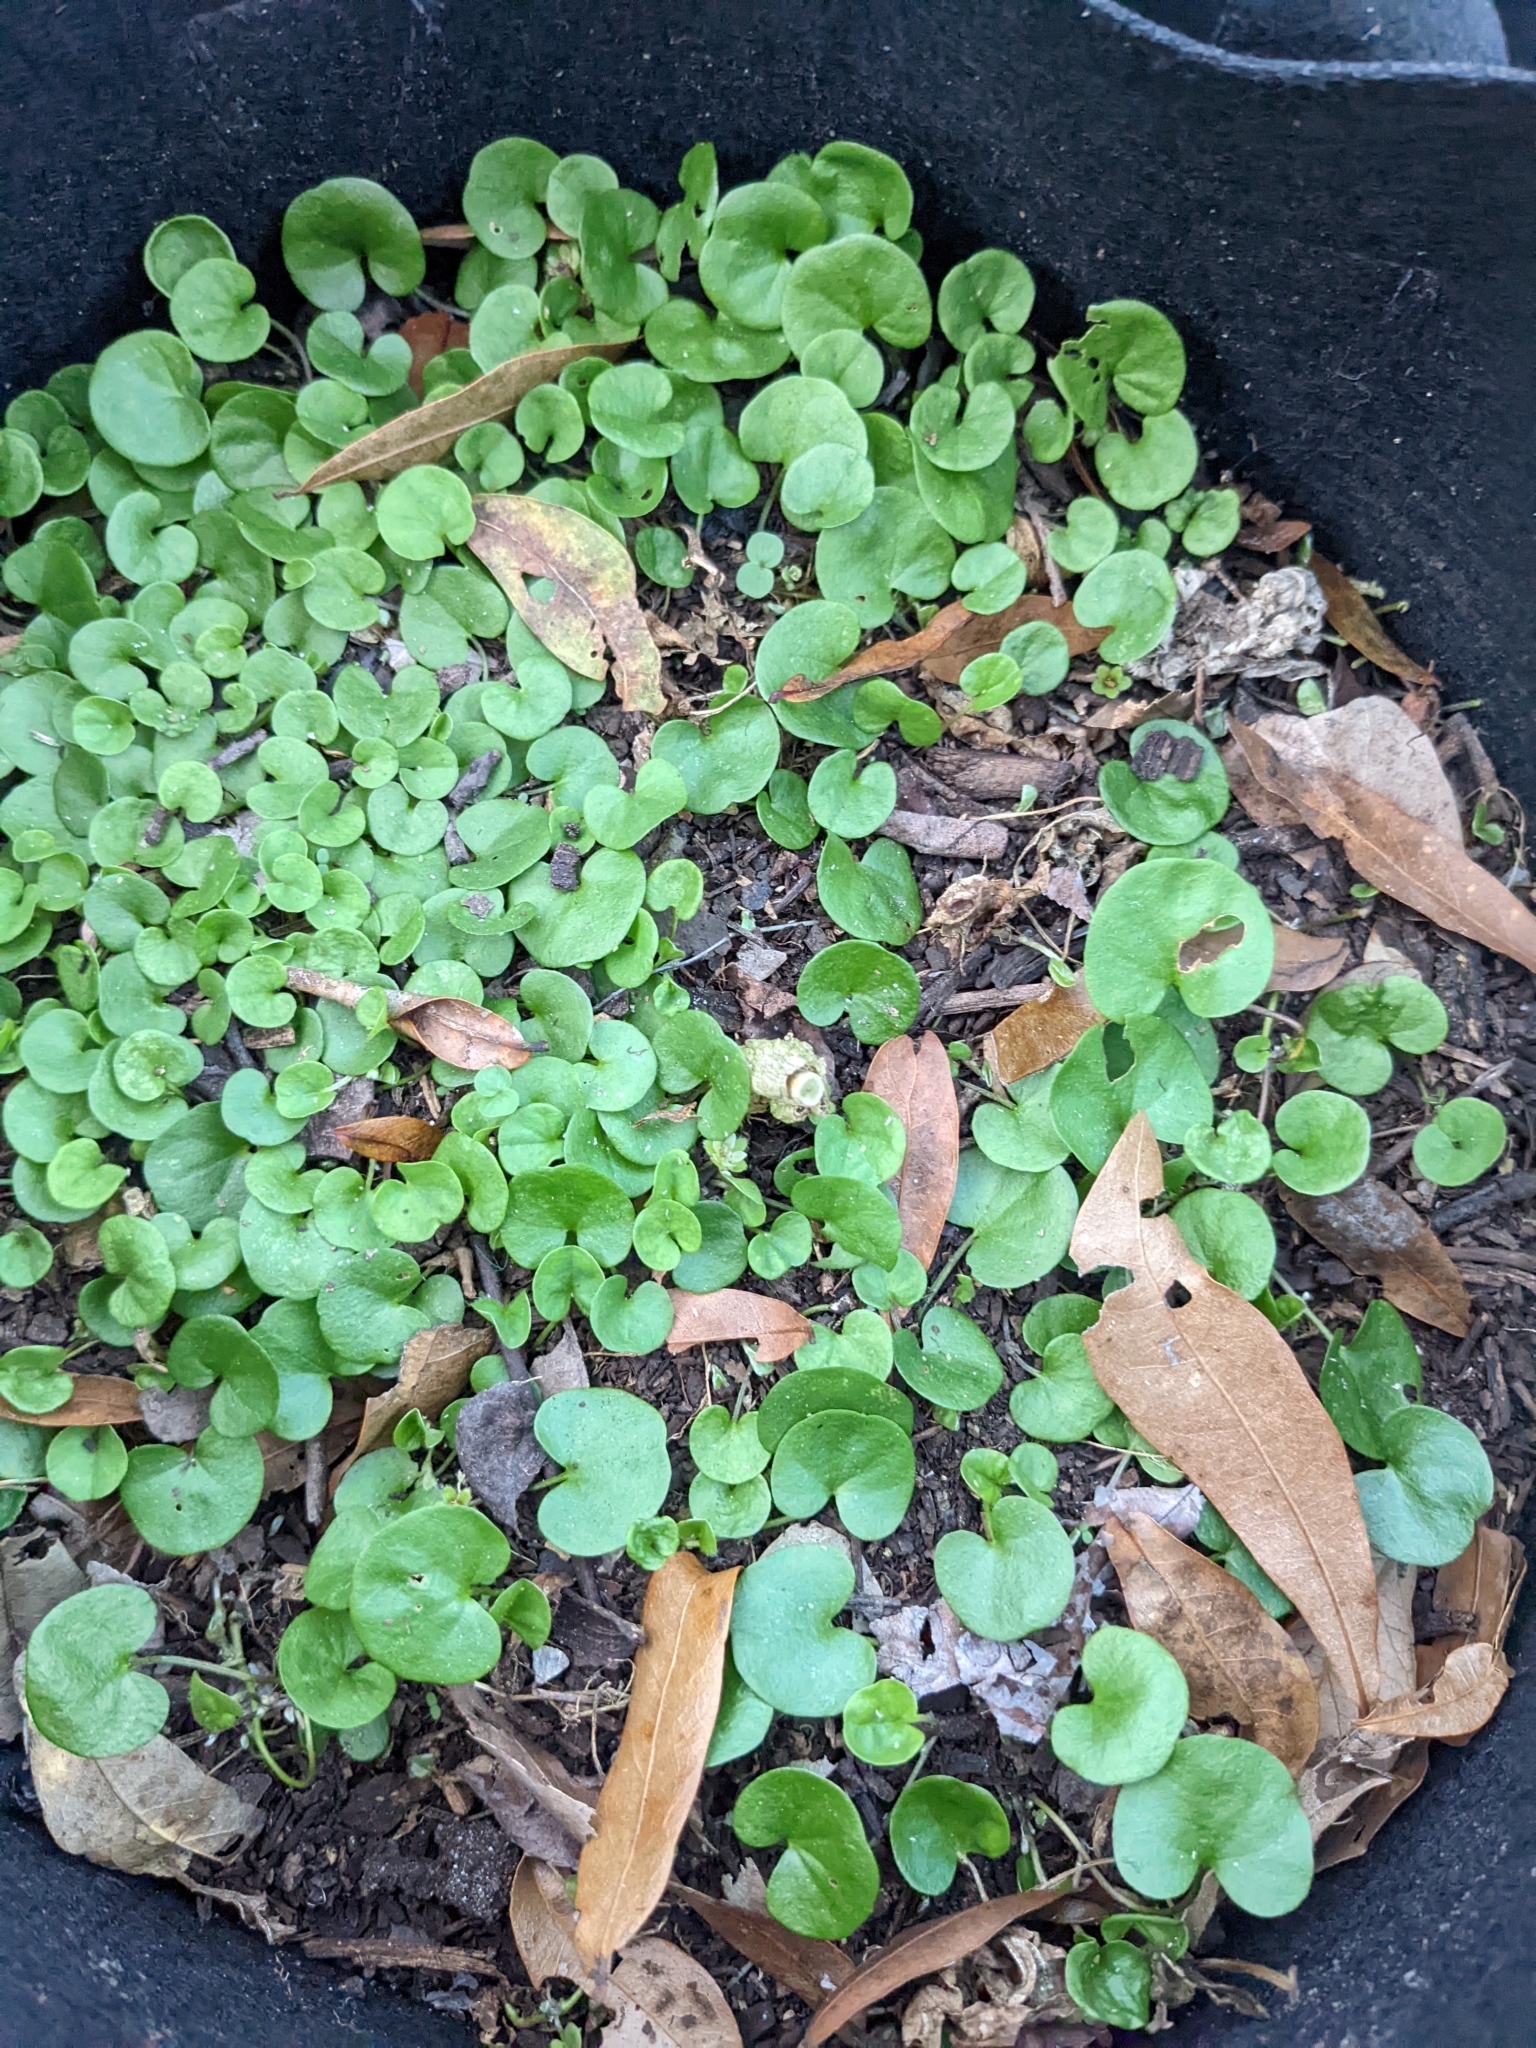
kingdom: Plantae
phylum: Tracheophyta
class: Magnoliopsida
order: Solanales
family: Convolvulaceae
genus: Dichondra
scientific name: Dichondra carolinensis
